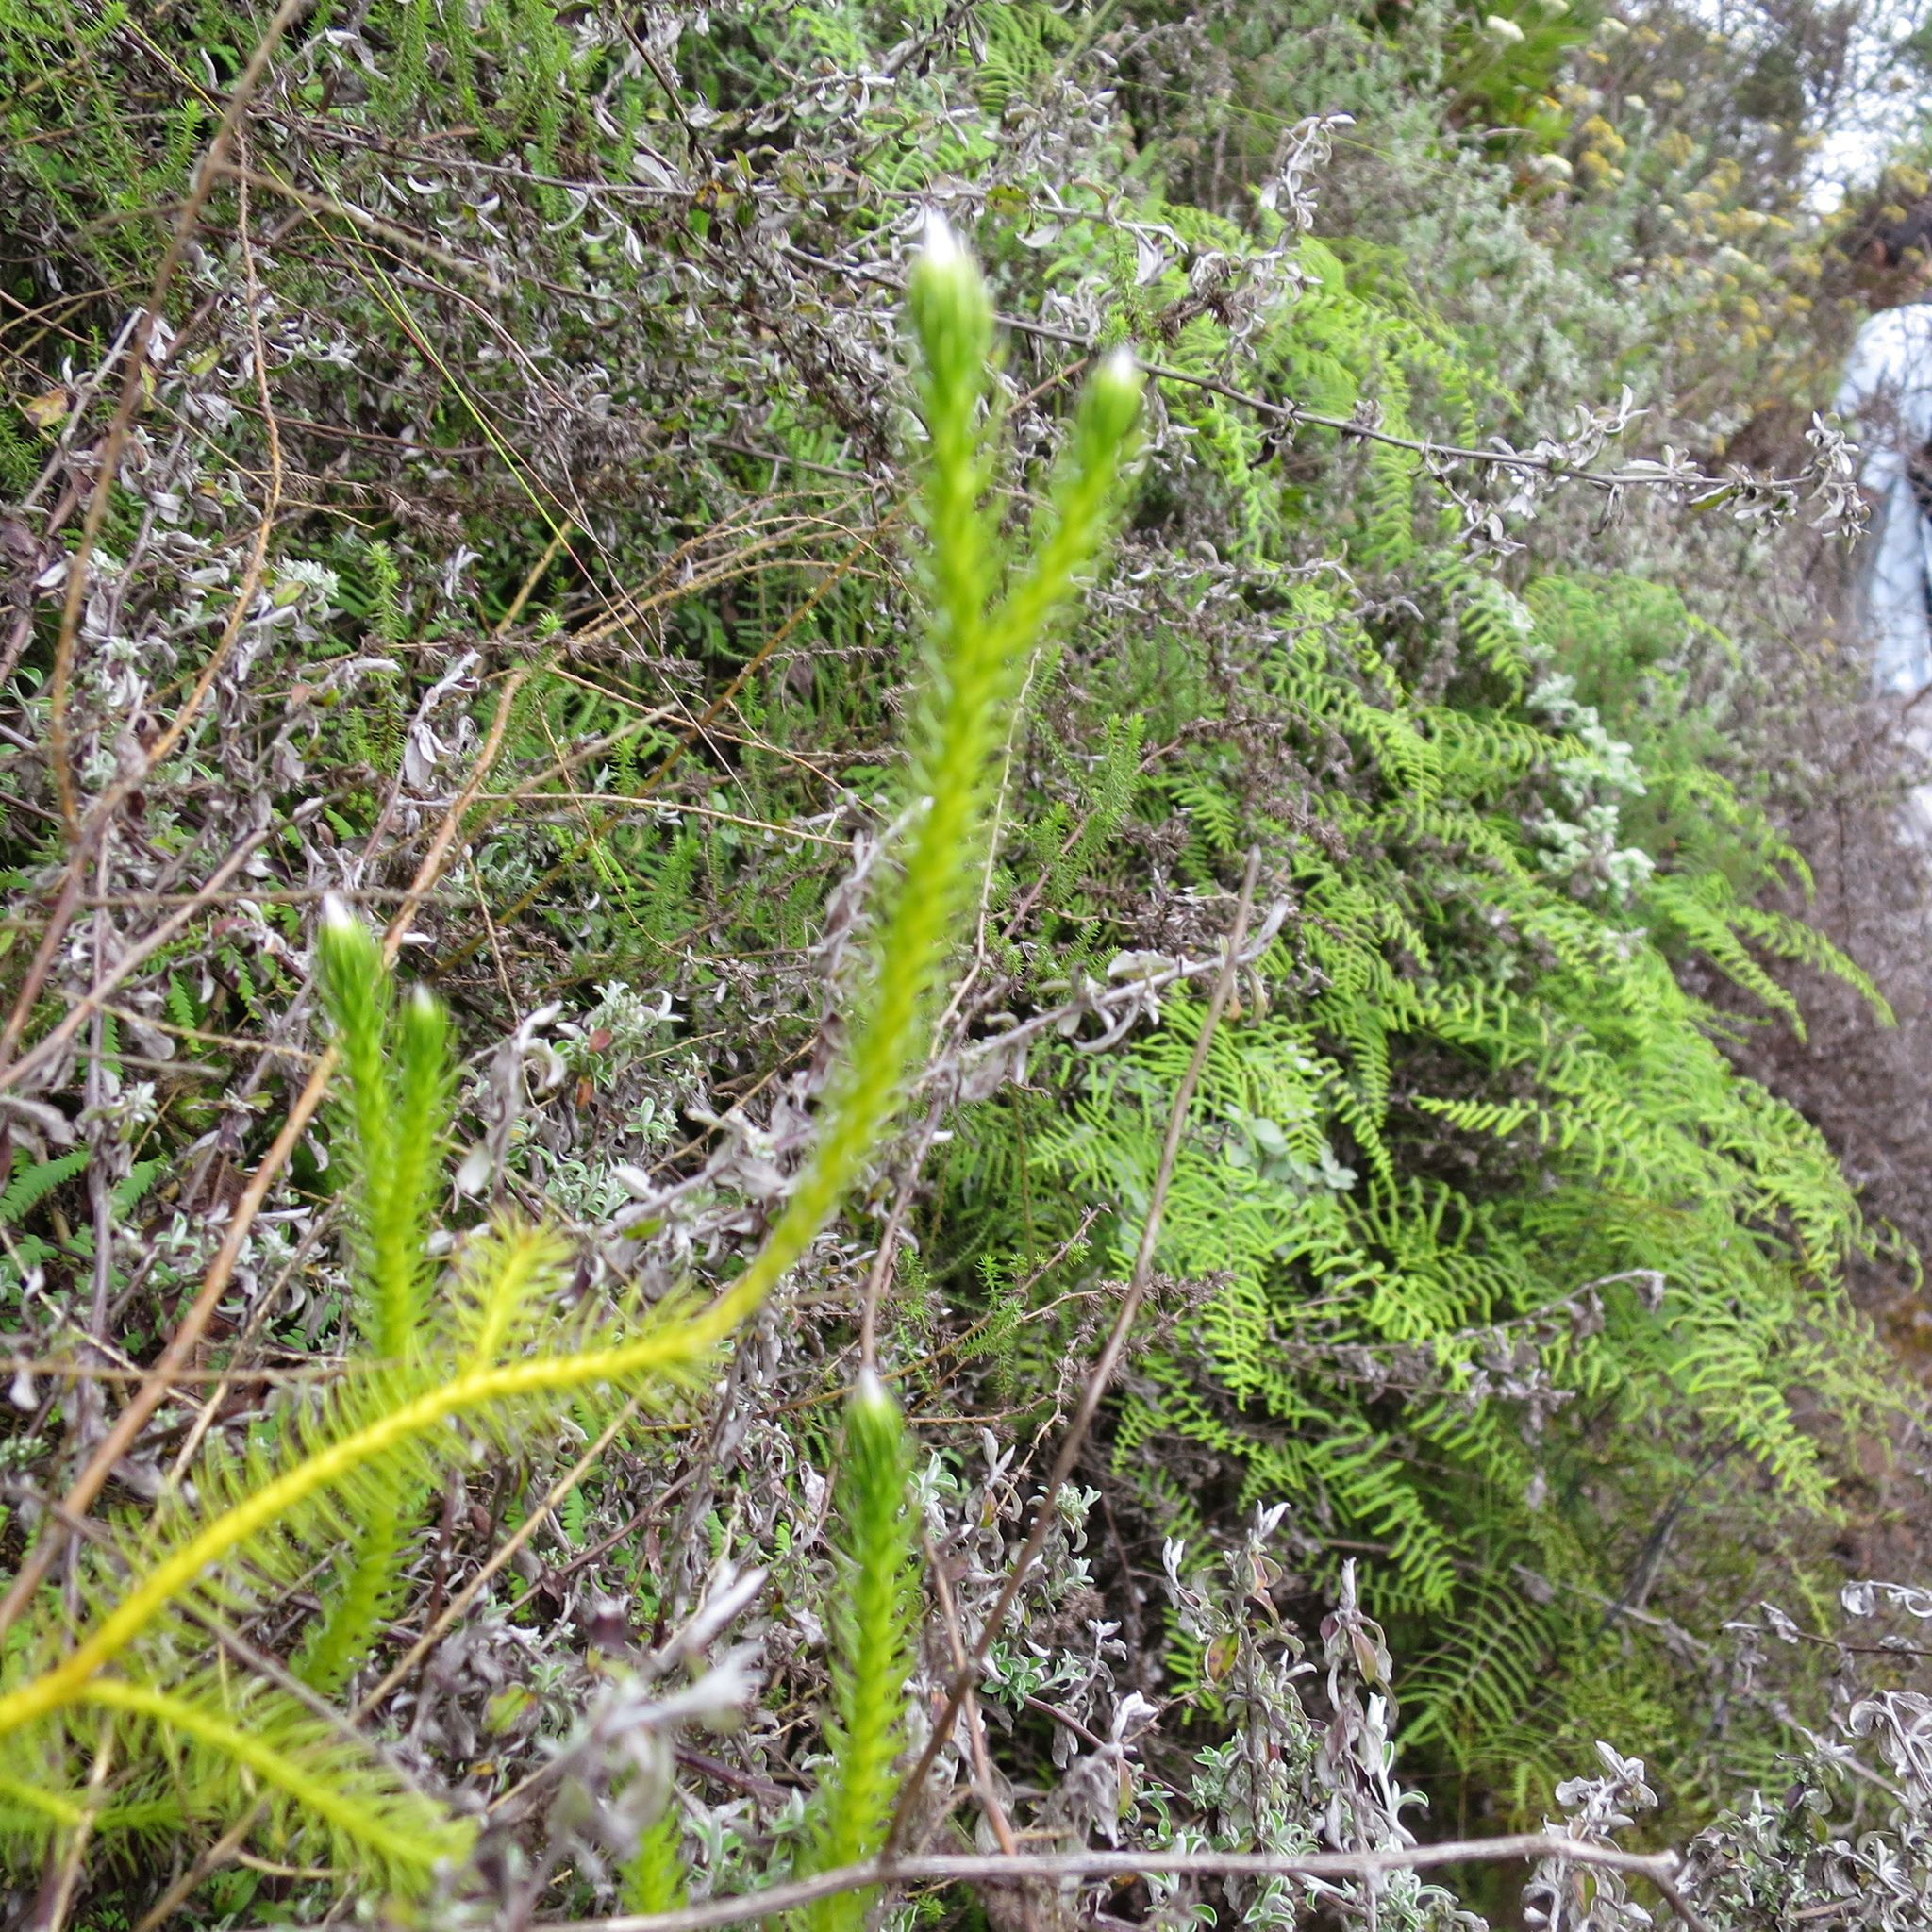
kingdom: Plantae
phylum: Tracheophyta
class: Lycopodiopsida
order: Lycopodiales
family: Lycopodiaceae
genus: Lycopodium
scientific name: Lycopodium clavatum
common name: Stag's-horn clubmoss
